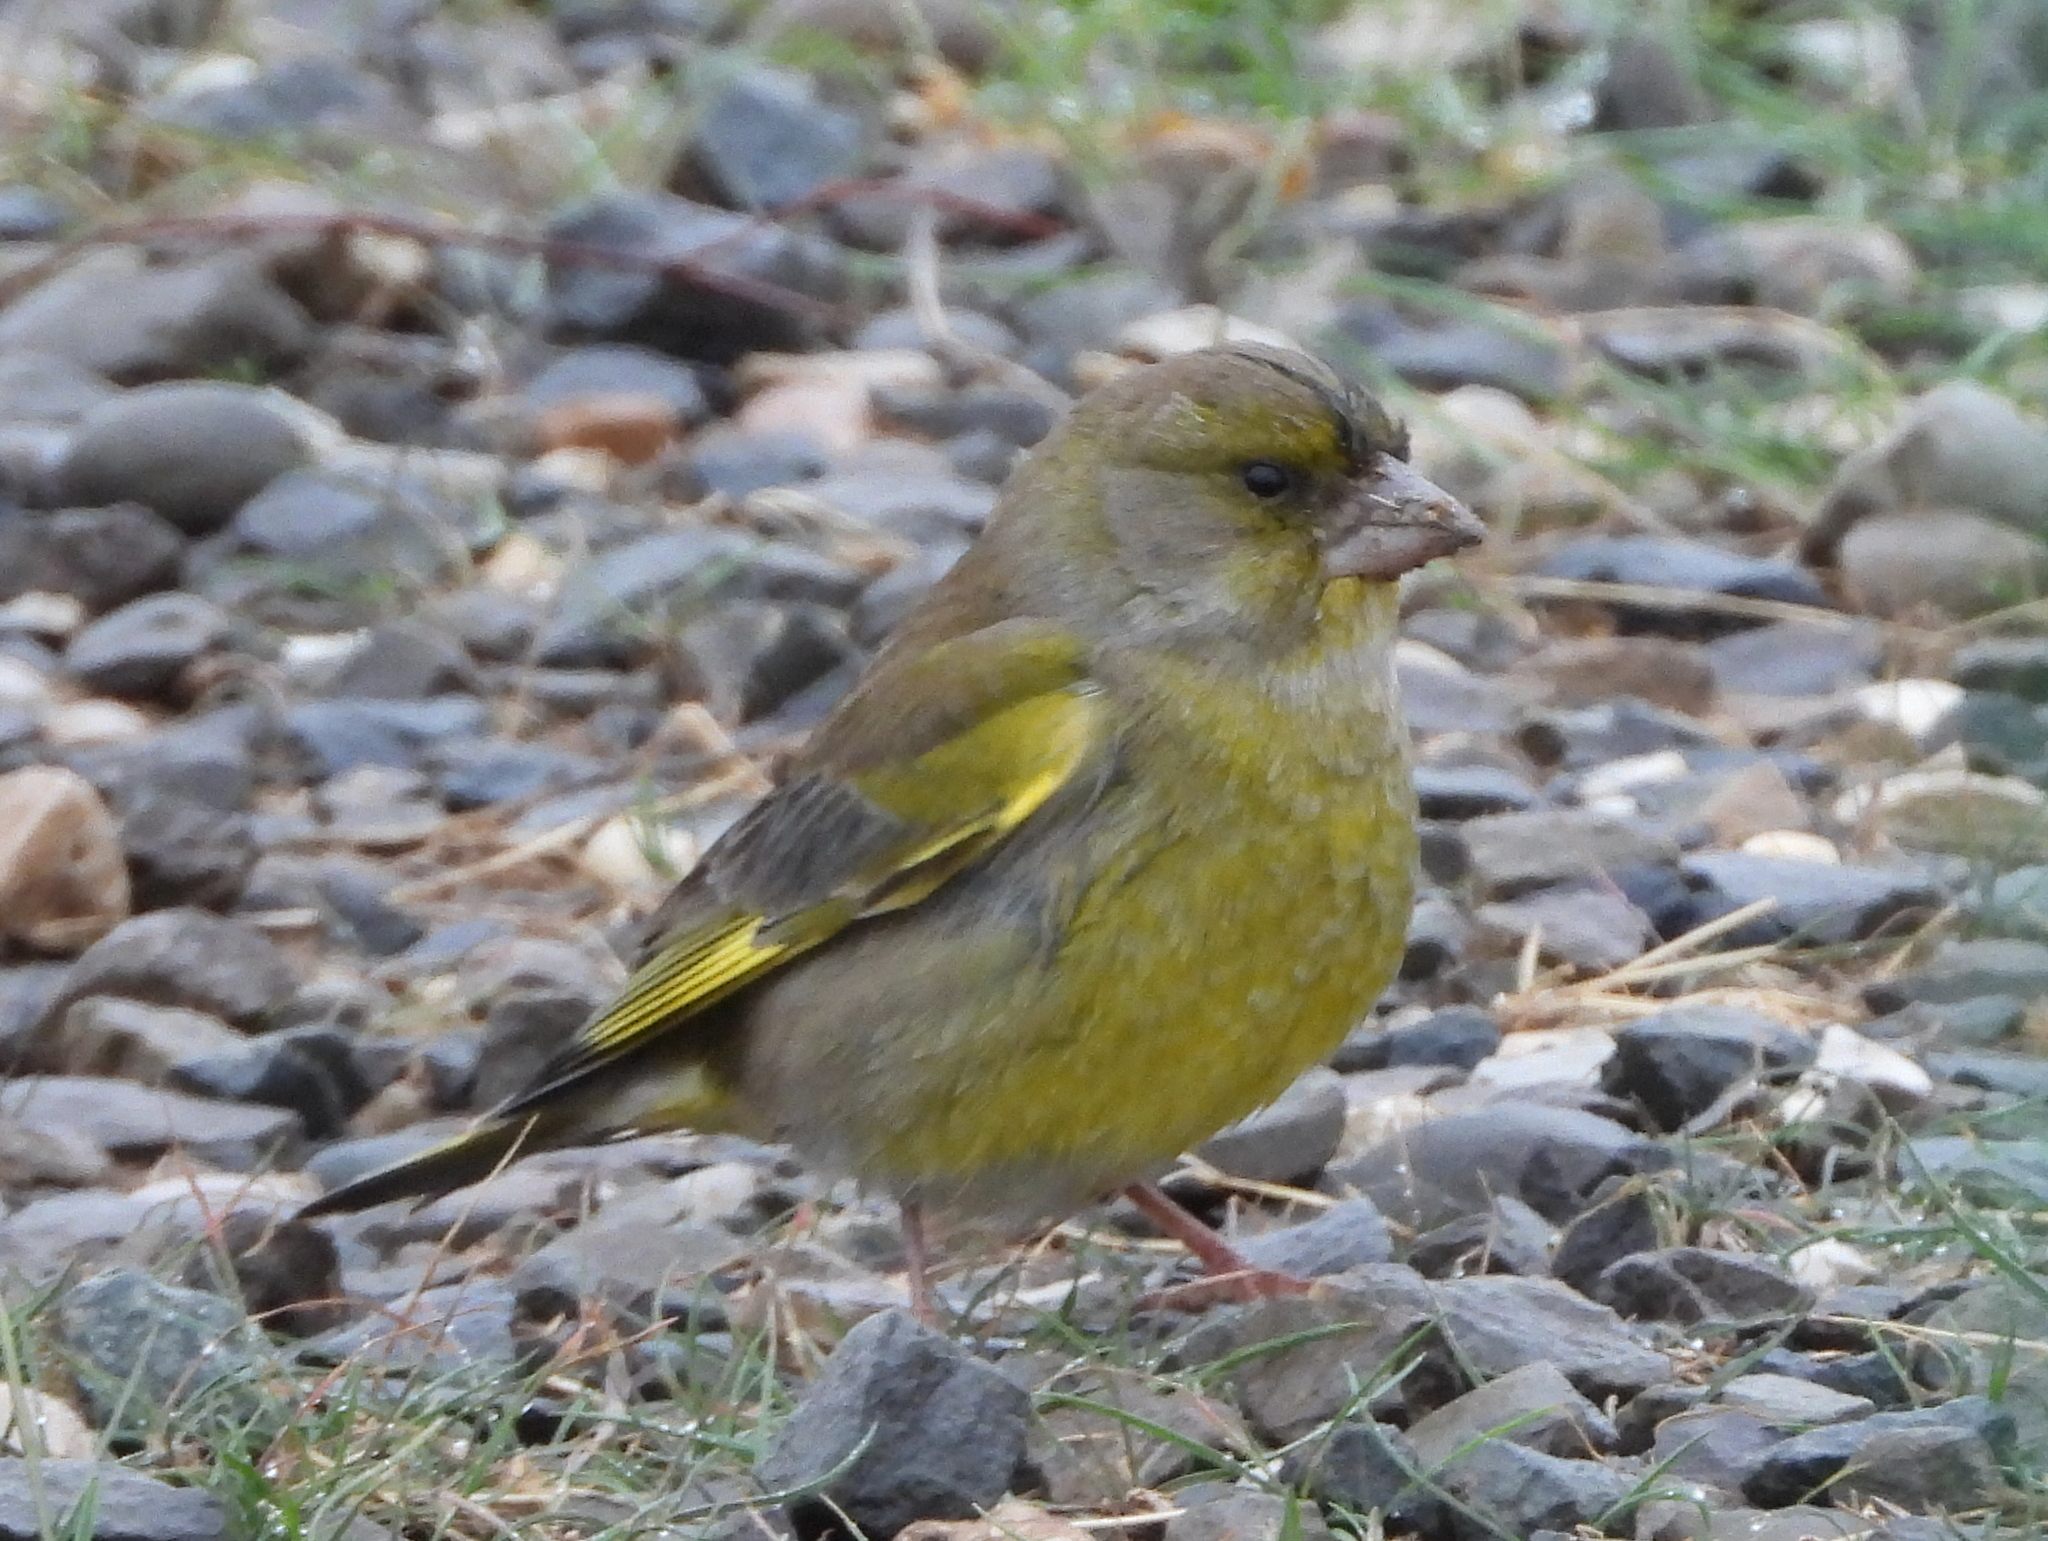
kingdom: Plantae
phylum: Tracheophyta
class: Liliopsida
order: Poales
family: Poaceae
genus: Chloris
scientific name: Chloris chloris
